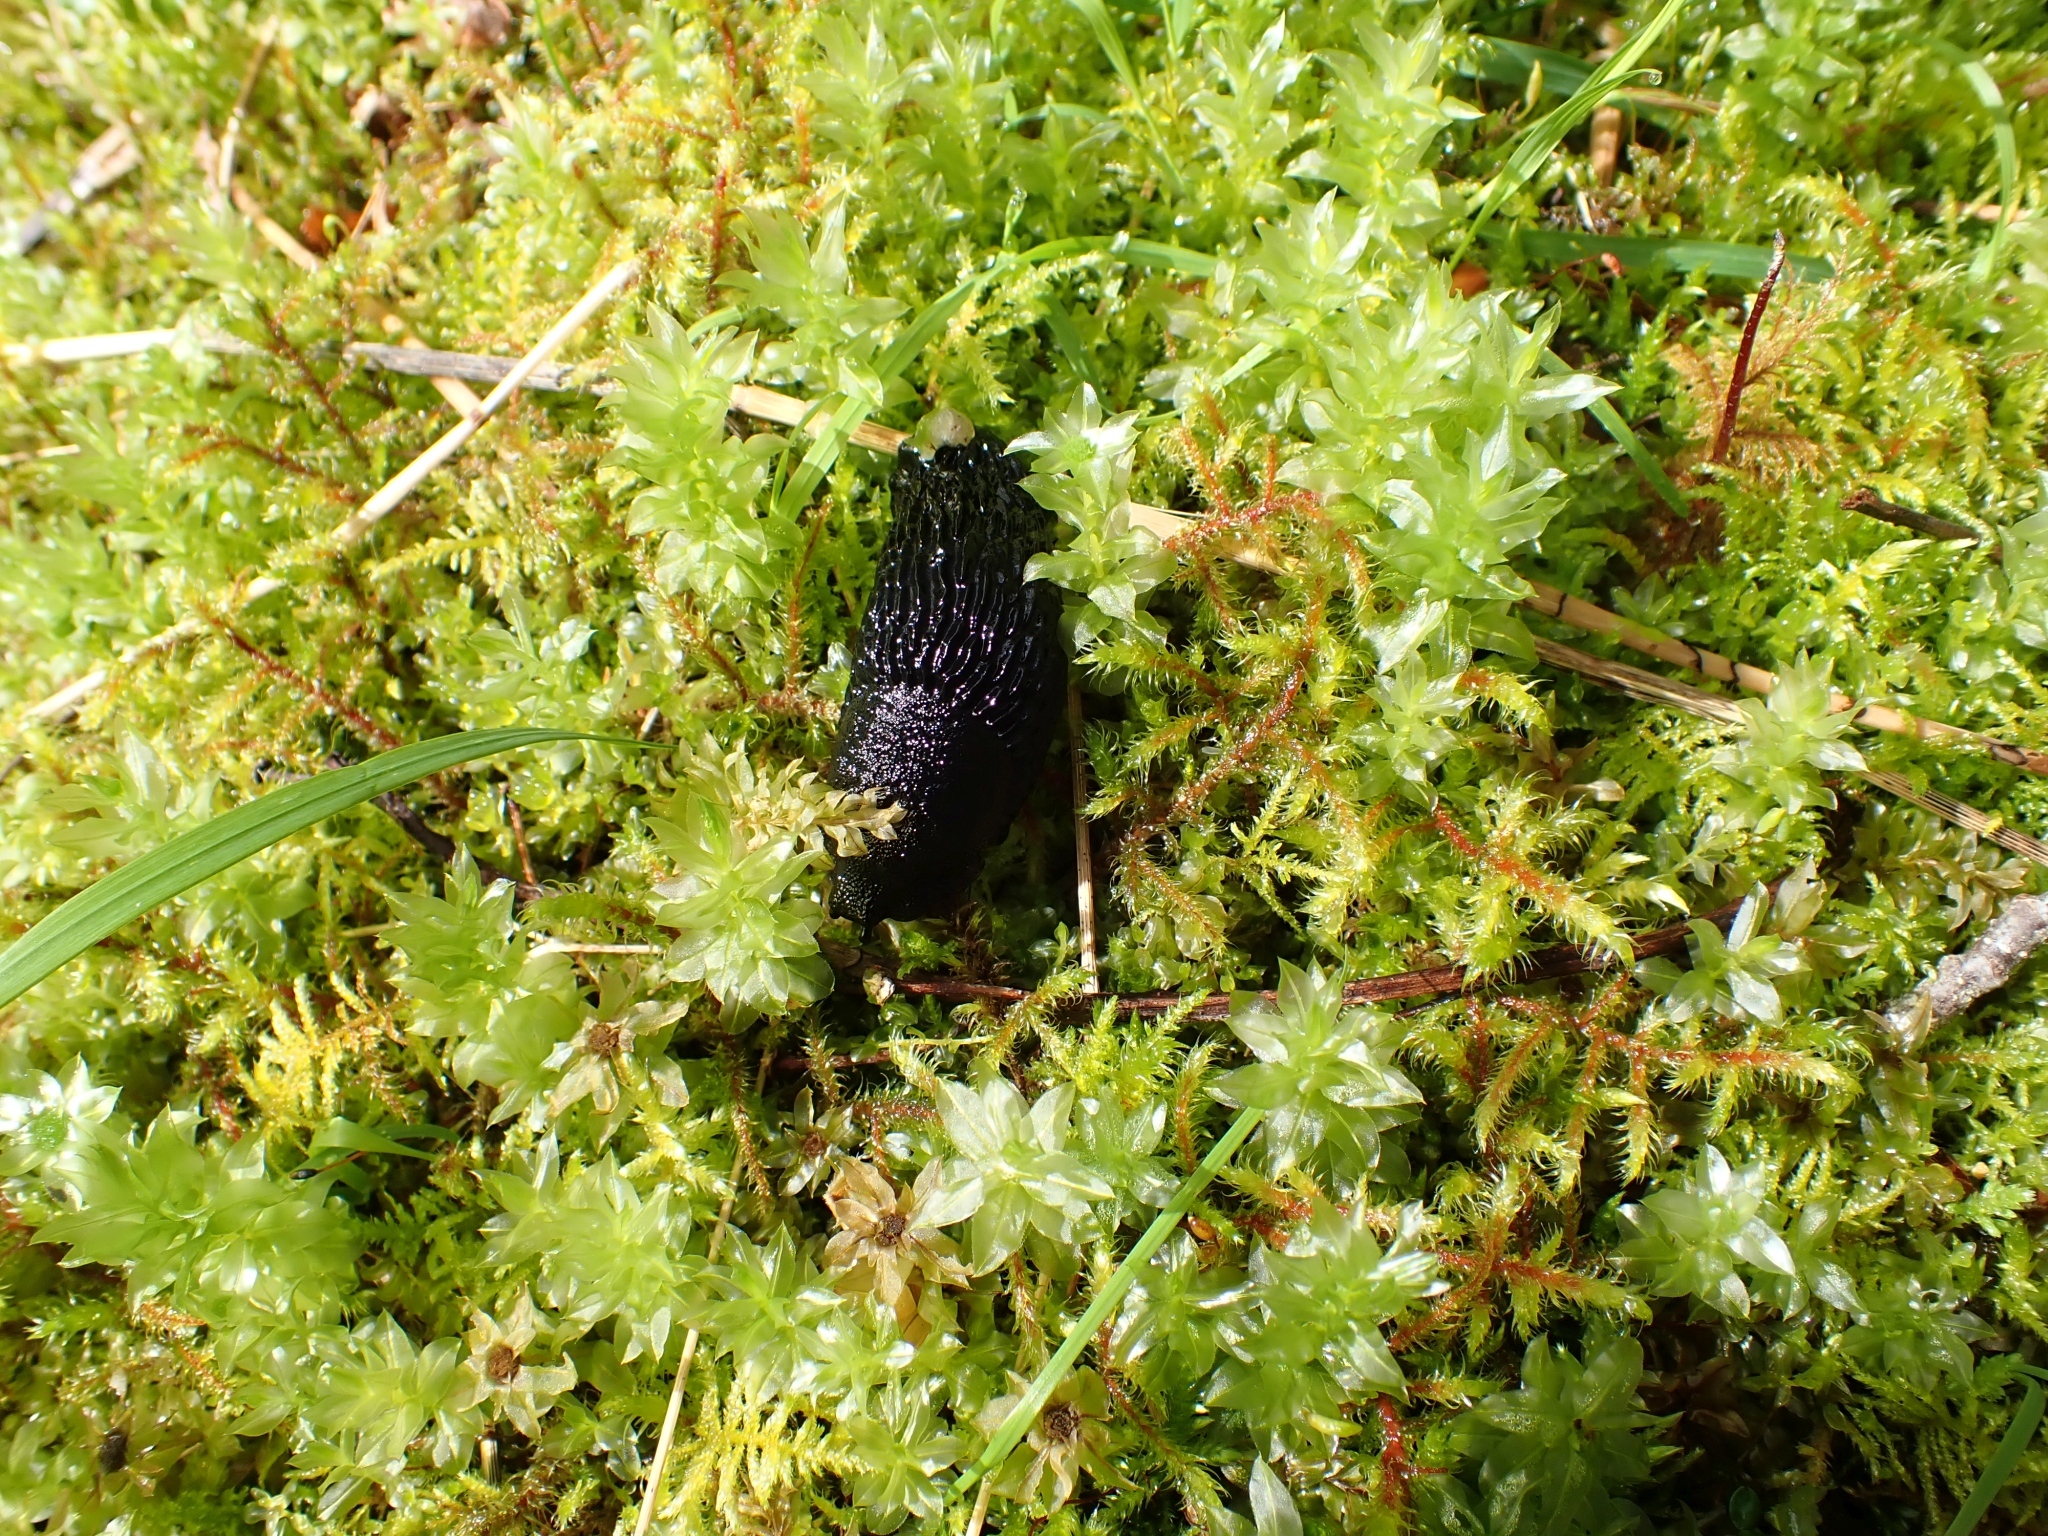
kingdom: Animalia
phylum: Mollusca
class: Gastropoda
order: Stylommatophora
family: Arionidae
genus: Arion
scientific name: Arion
